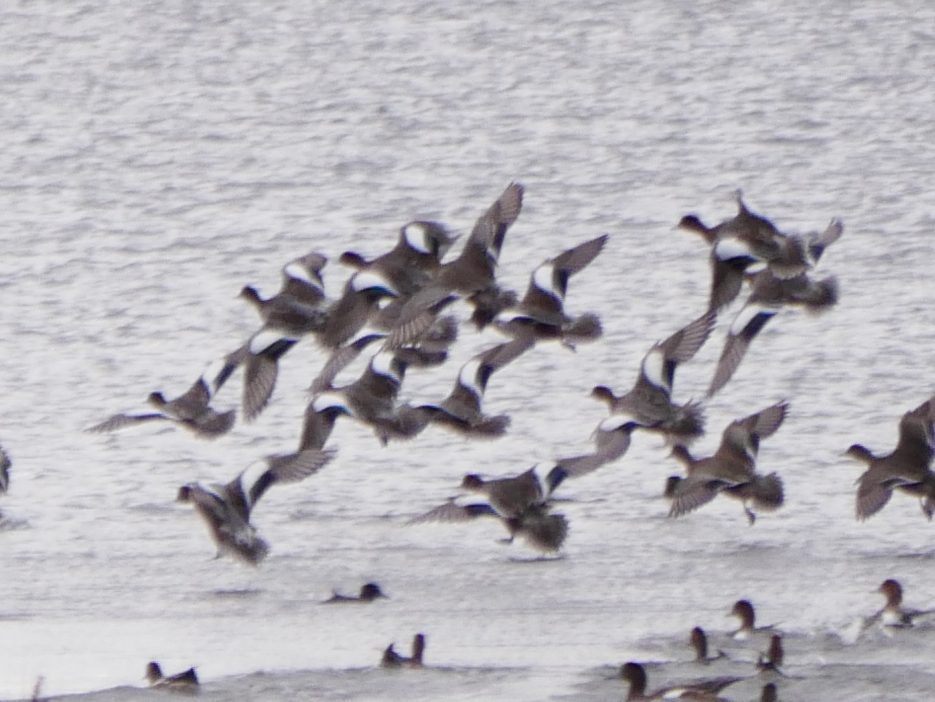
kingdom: Animalia
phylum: Chordata
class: Aves
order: Anseriformes
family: Anatidae
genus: Mareca
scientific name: Mareca penelope
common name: Eurasian wigeon
